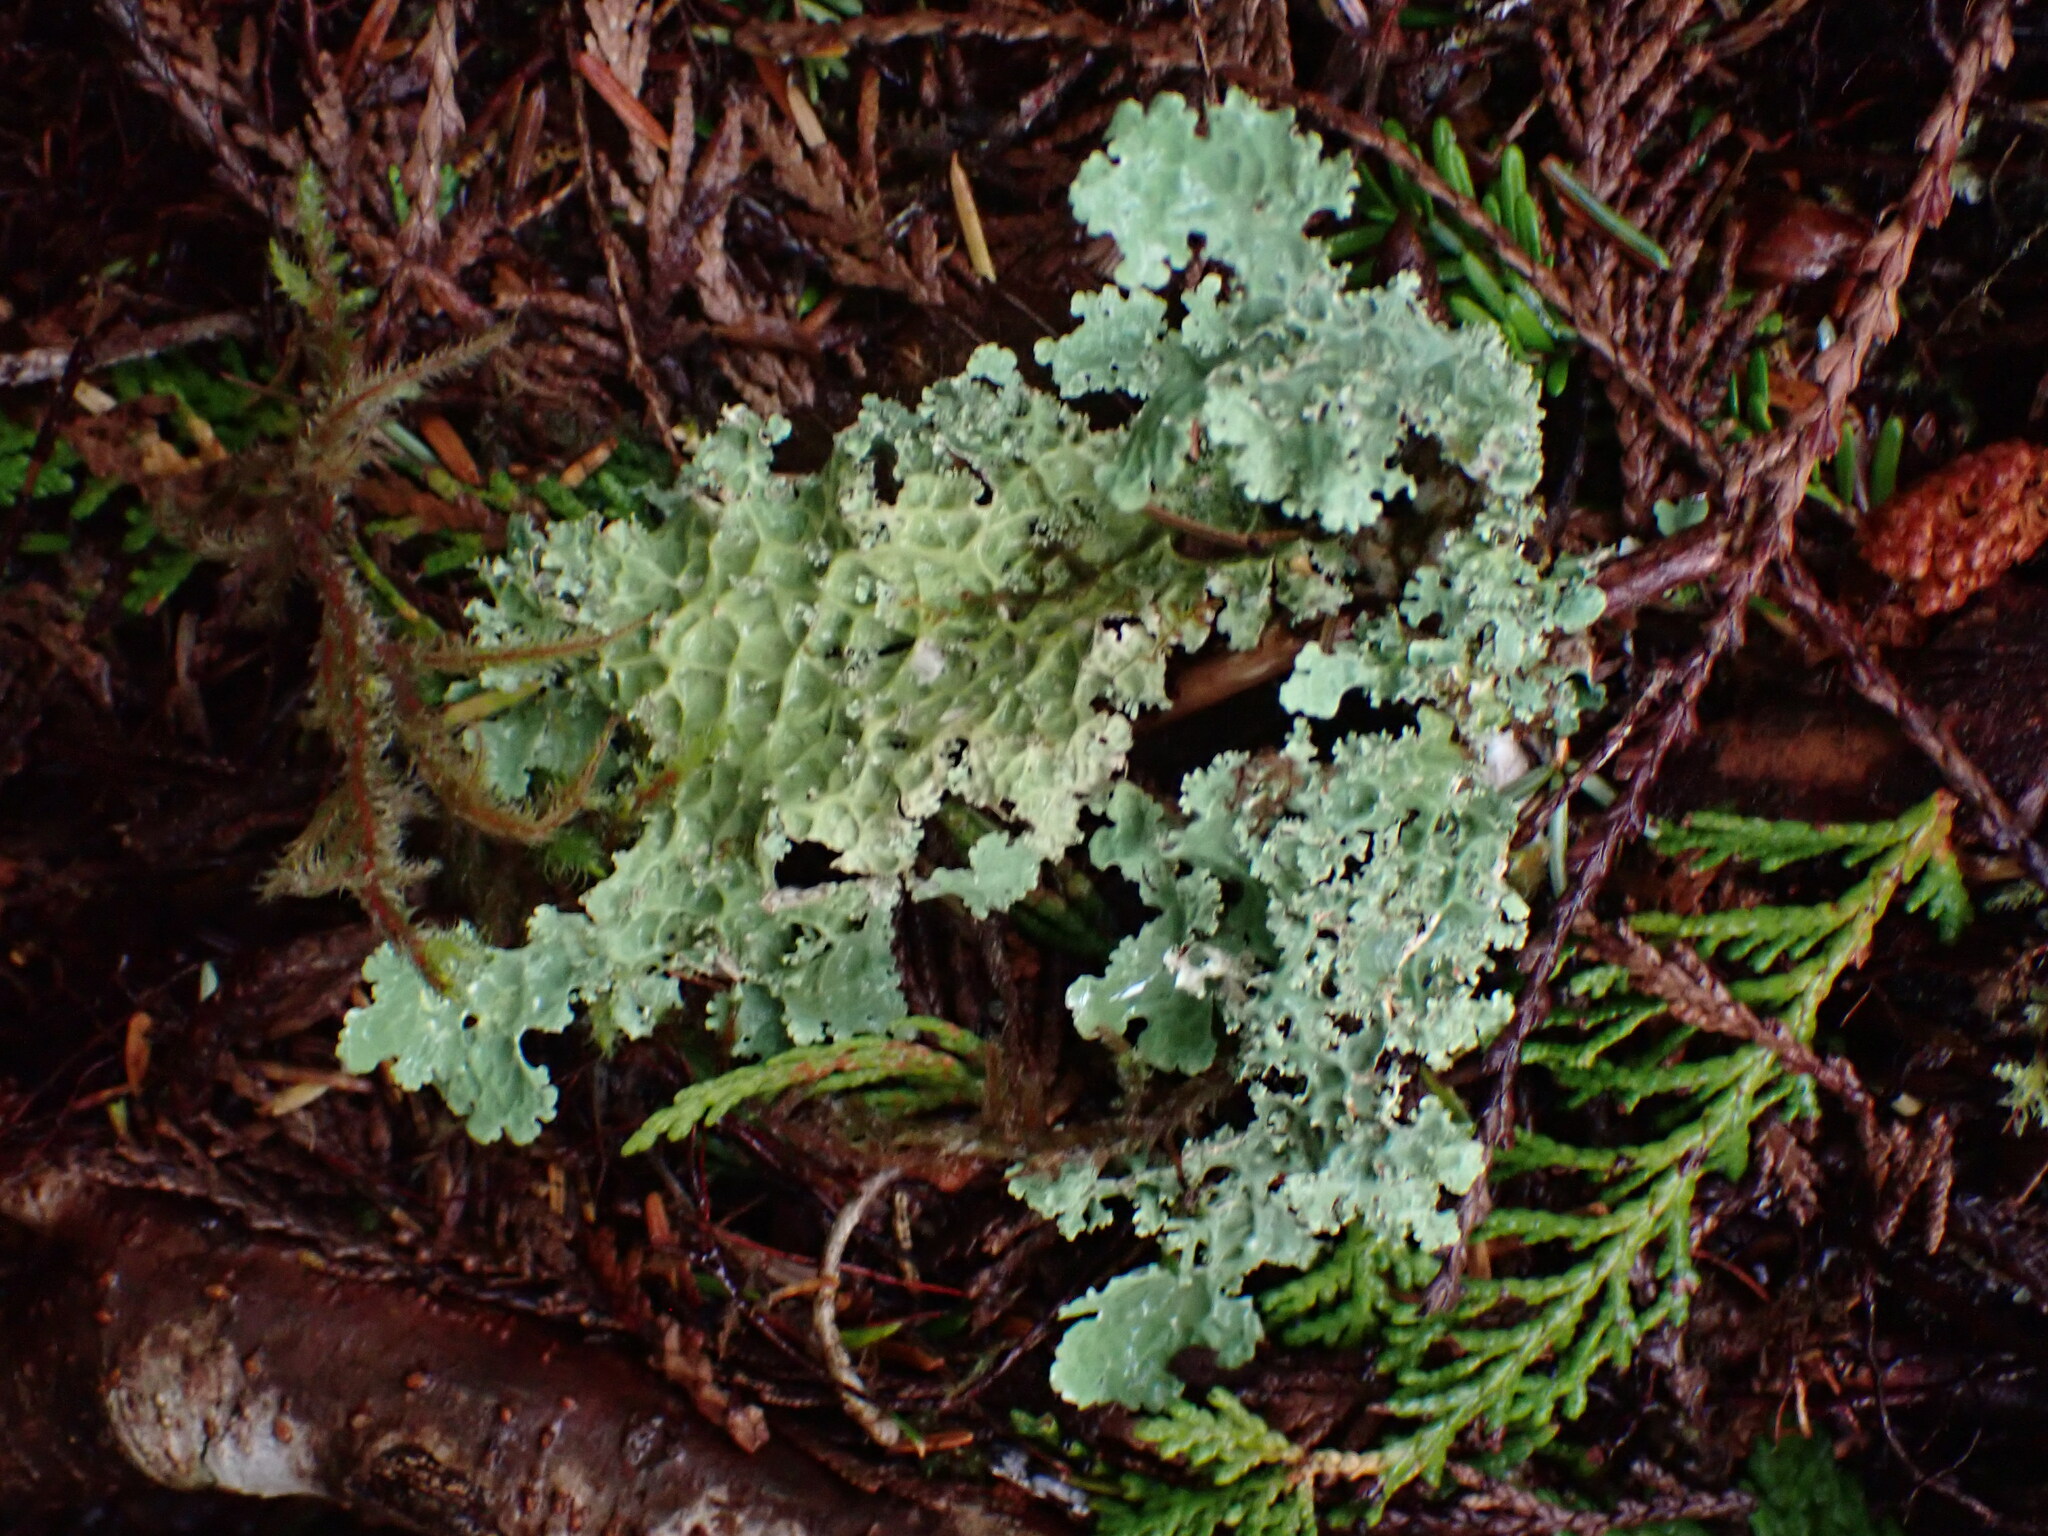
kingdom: Fungi
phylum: Ascomycota
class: Lecanoromycetes
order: Peltigerales
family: Lobariaceae
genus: Lobaria
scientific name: Lobaria oregana
